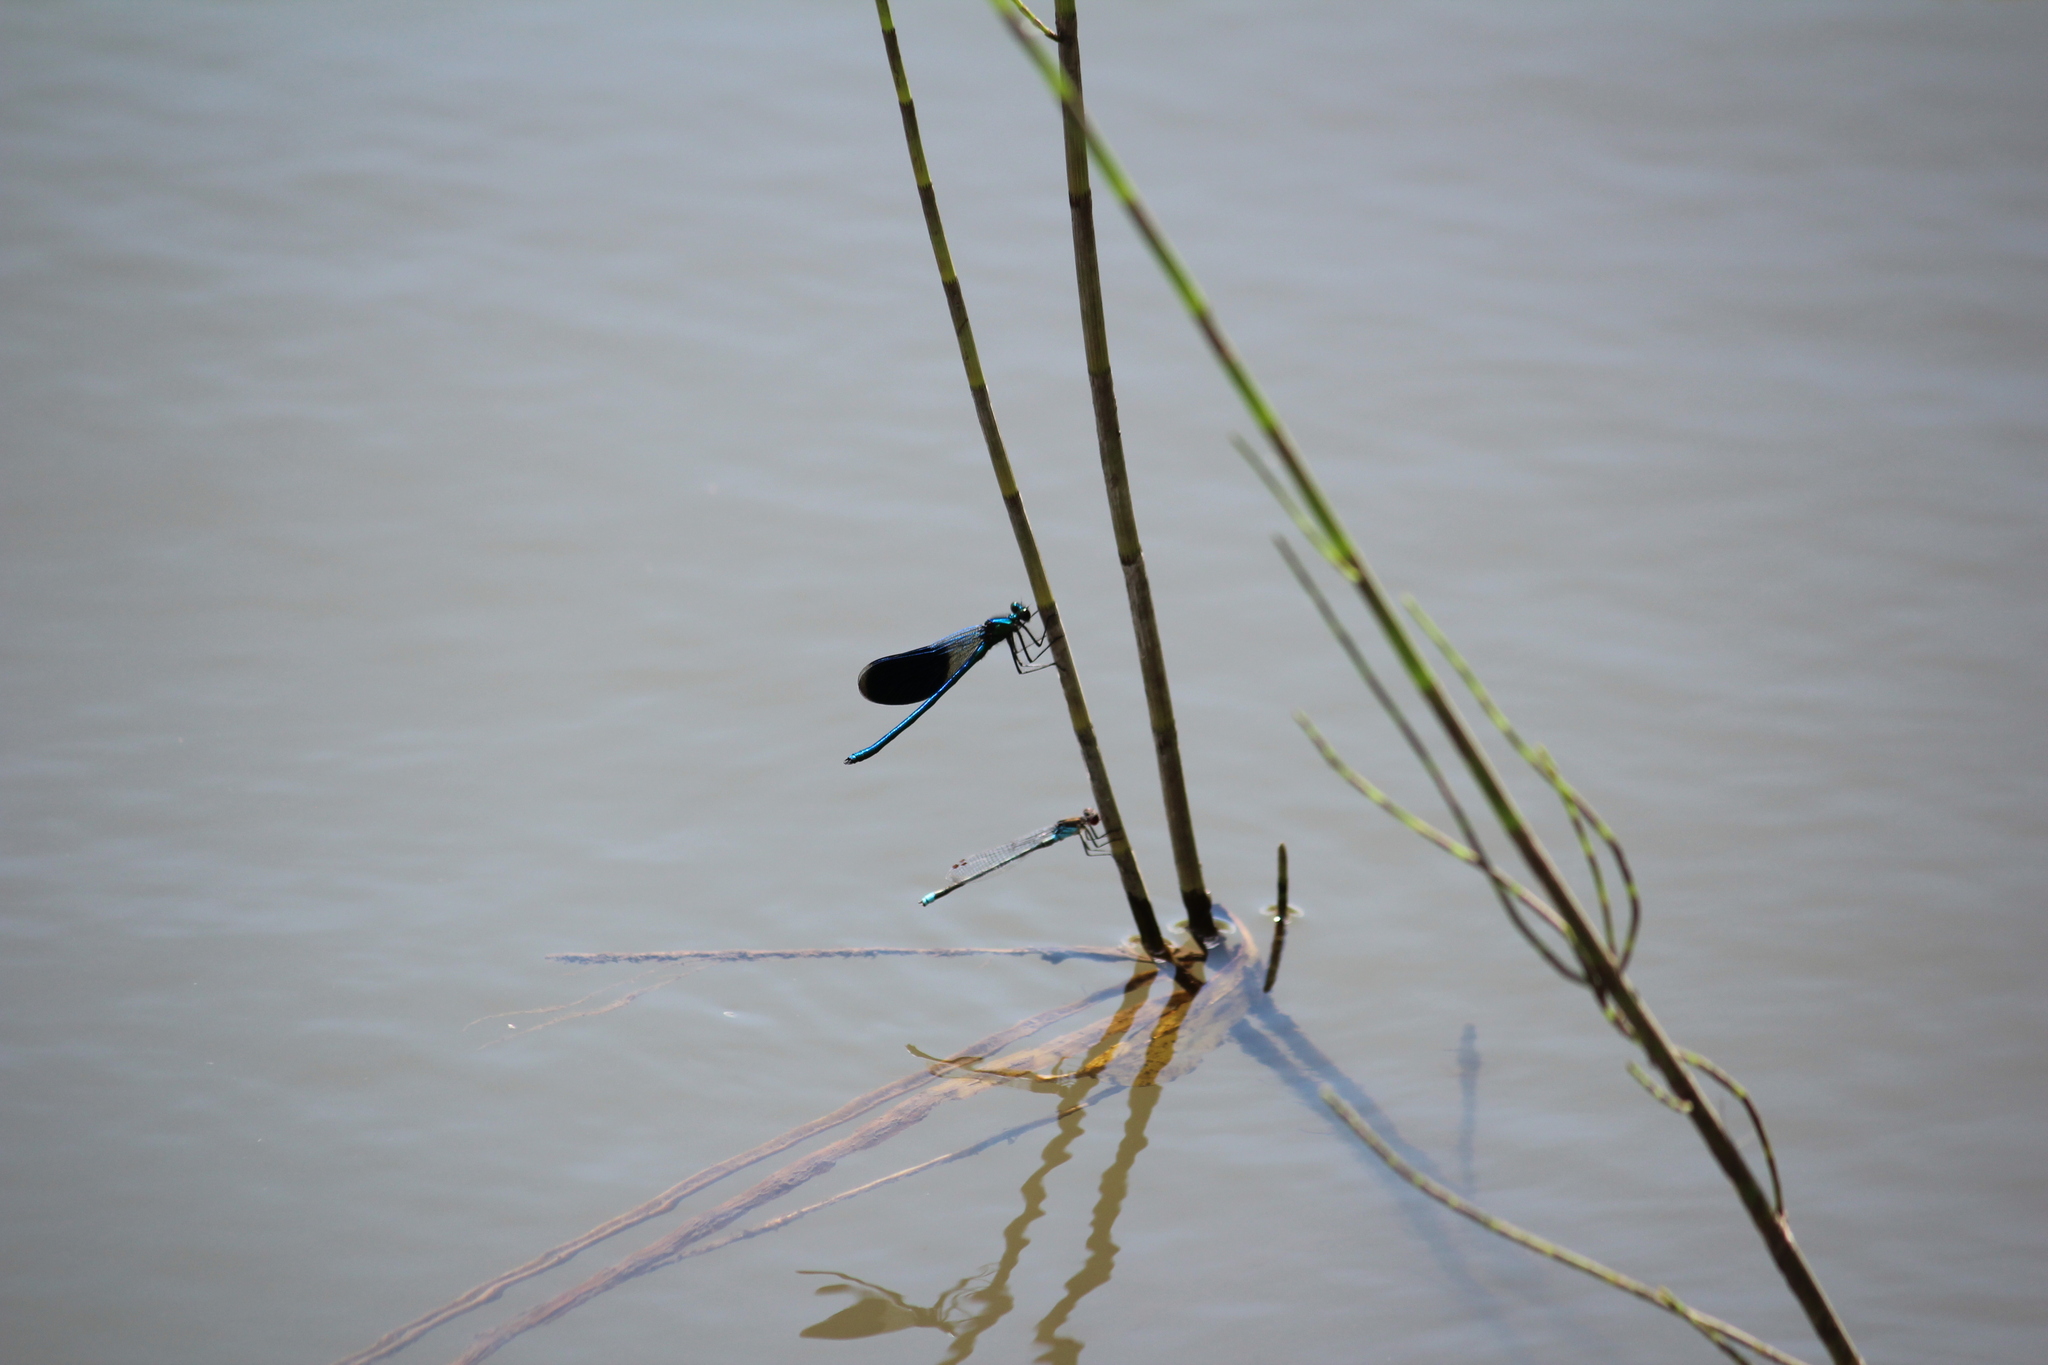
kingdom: Animalia
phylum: Arthropoda
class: Insecta
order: Odonata
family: Coenagrionidae
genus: Erythromma
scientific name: Erythromma najas
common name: Red-eyed damselfly
